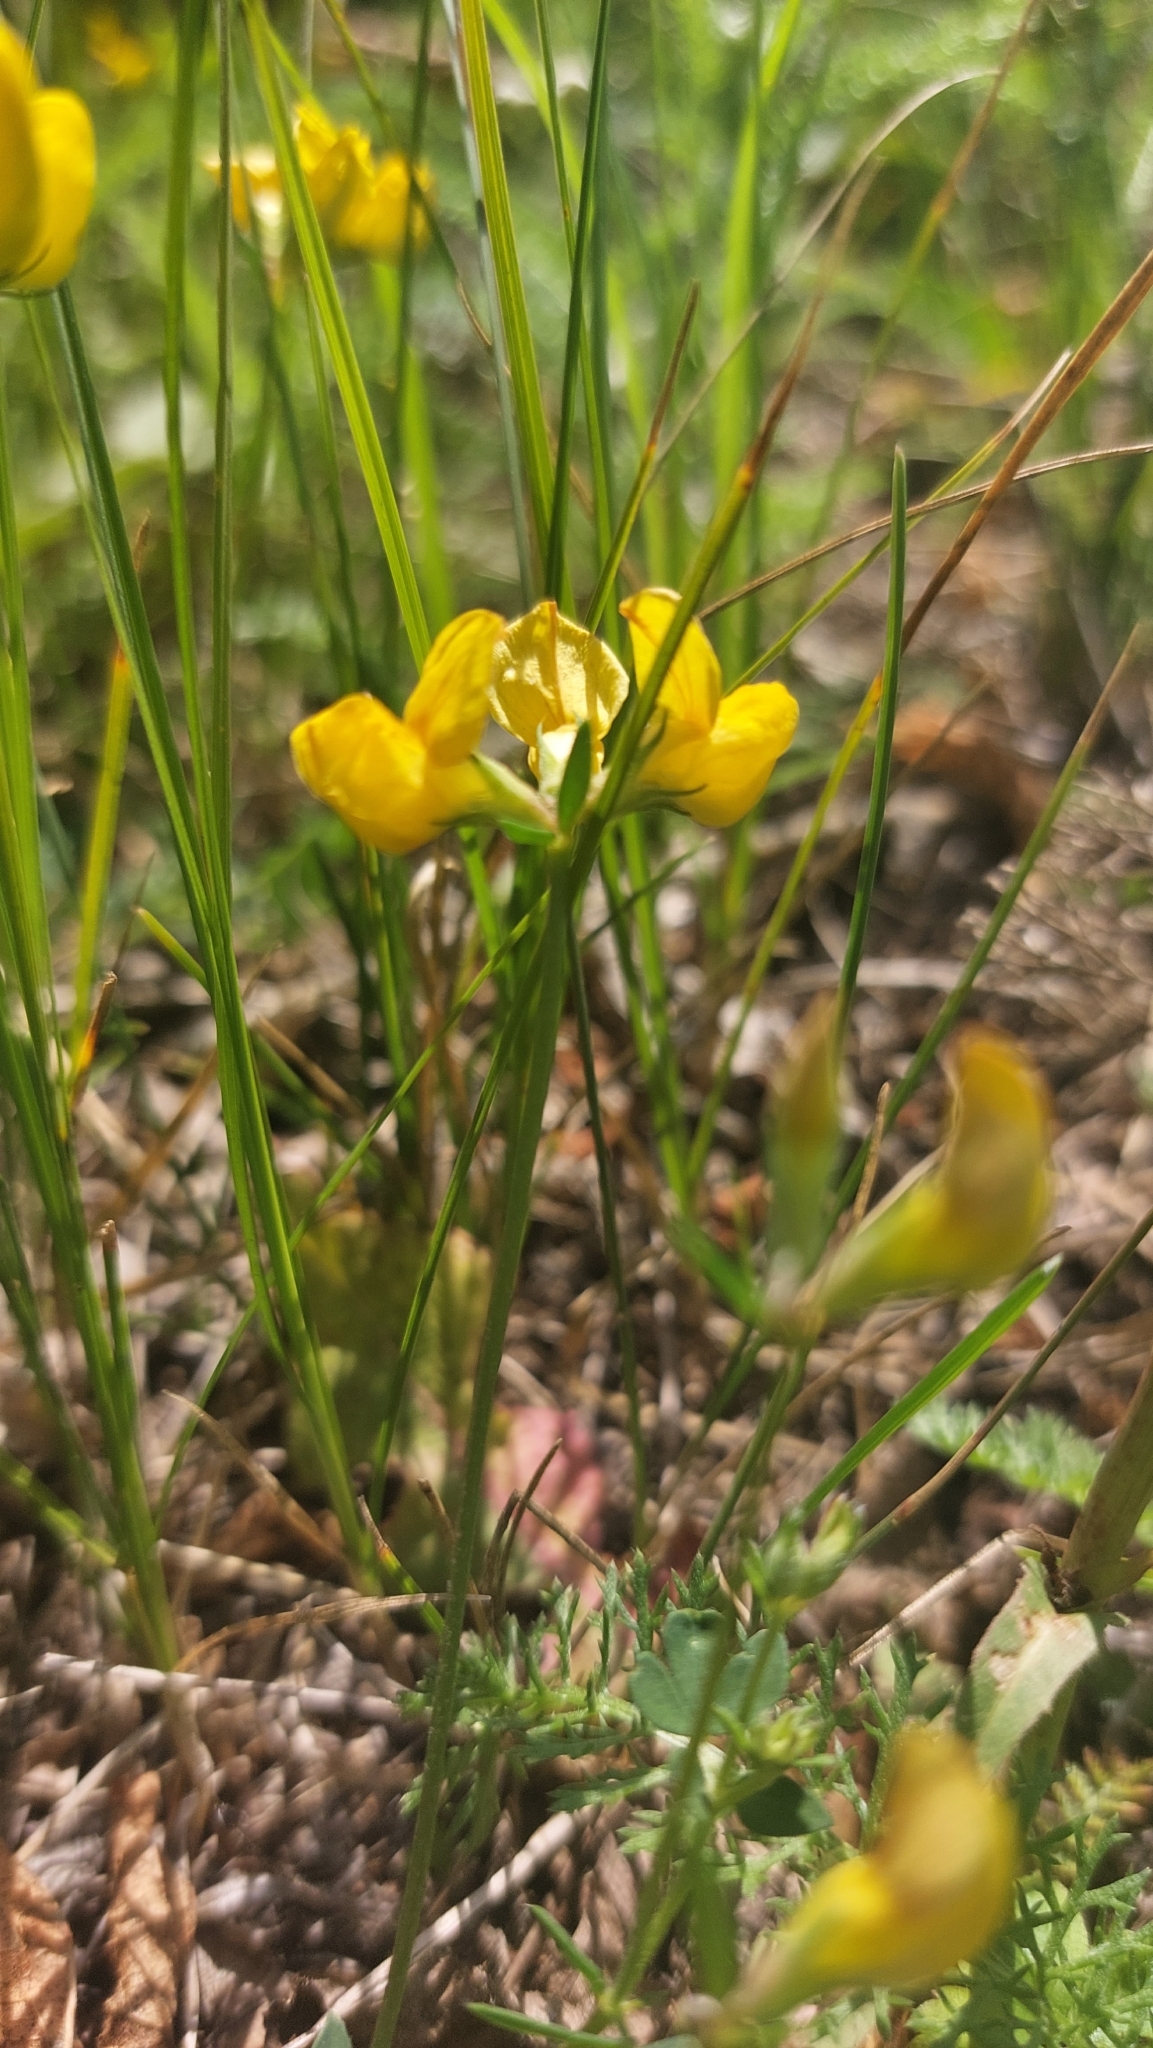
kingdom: Plantae
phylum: Tracheophyta
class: Magnoliopsida
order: Fabales
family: Fabaceae
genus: Lotus
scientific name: Lotus corniculatus
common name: Common bird's-foot-trefoil
